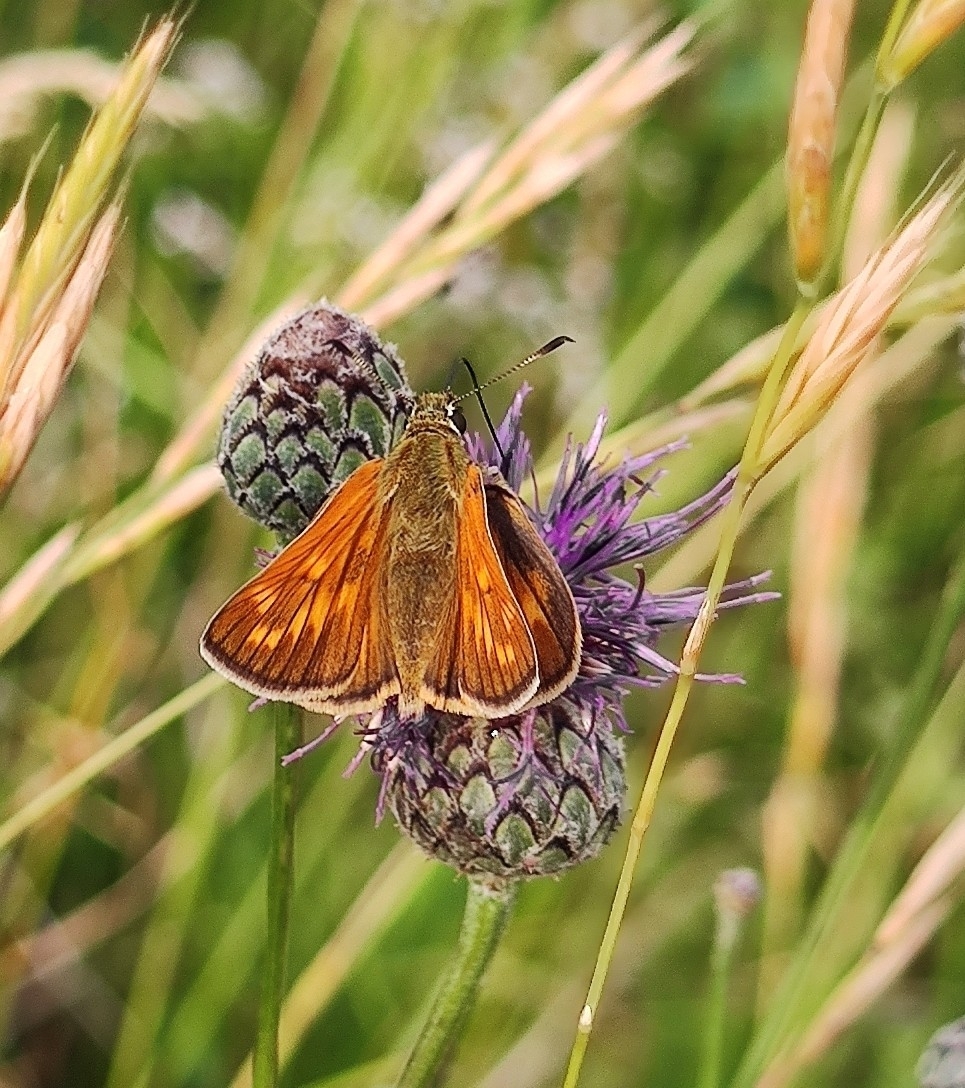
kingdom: Animalia
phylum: Arthropoda
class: Insecta
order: Lepidoptera
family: Hesperiidae
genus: Ochlodes
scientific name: Ochlodes venata
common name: Large skipper
